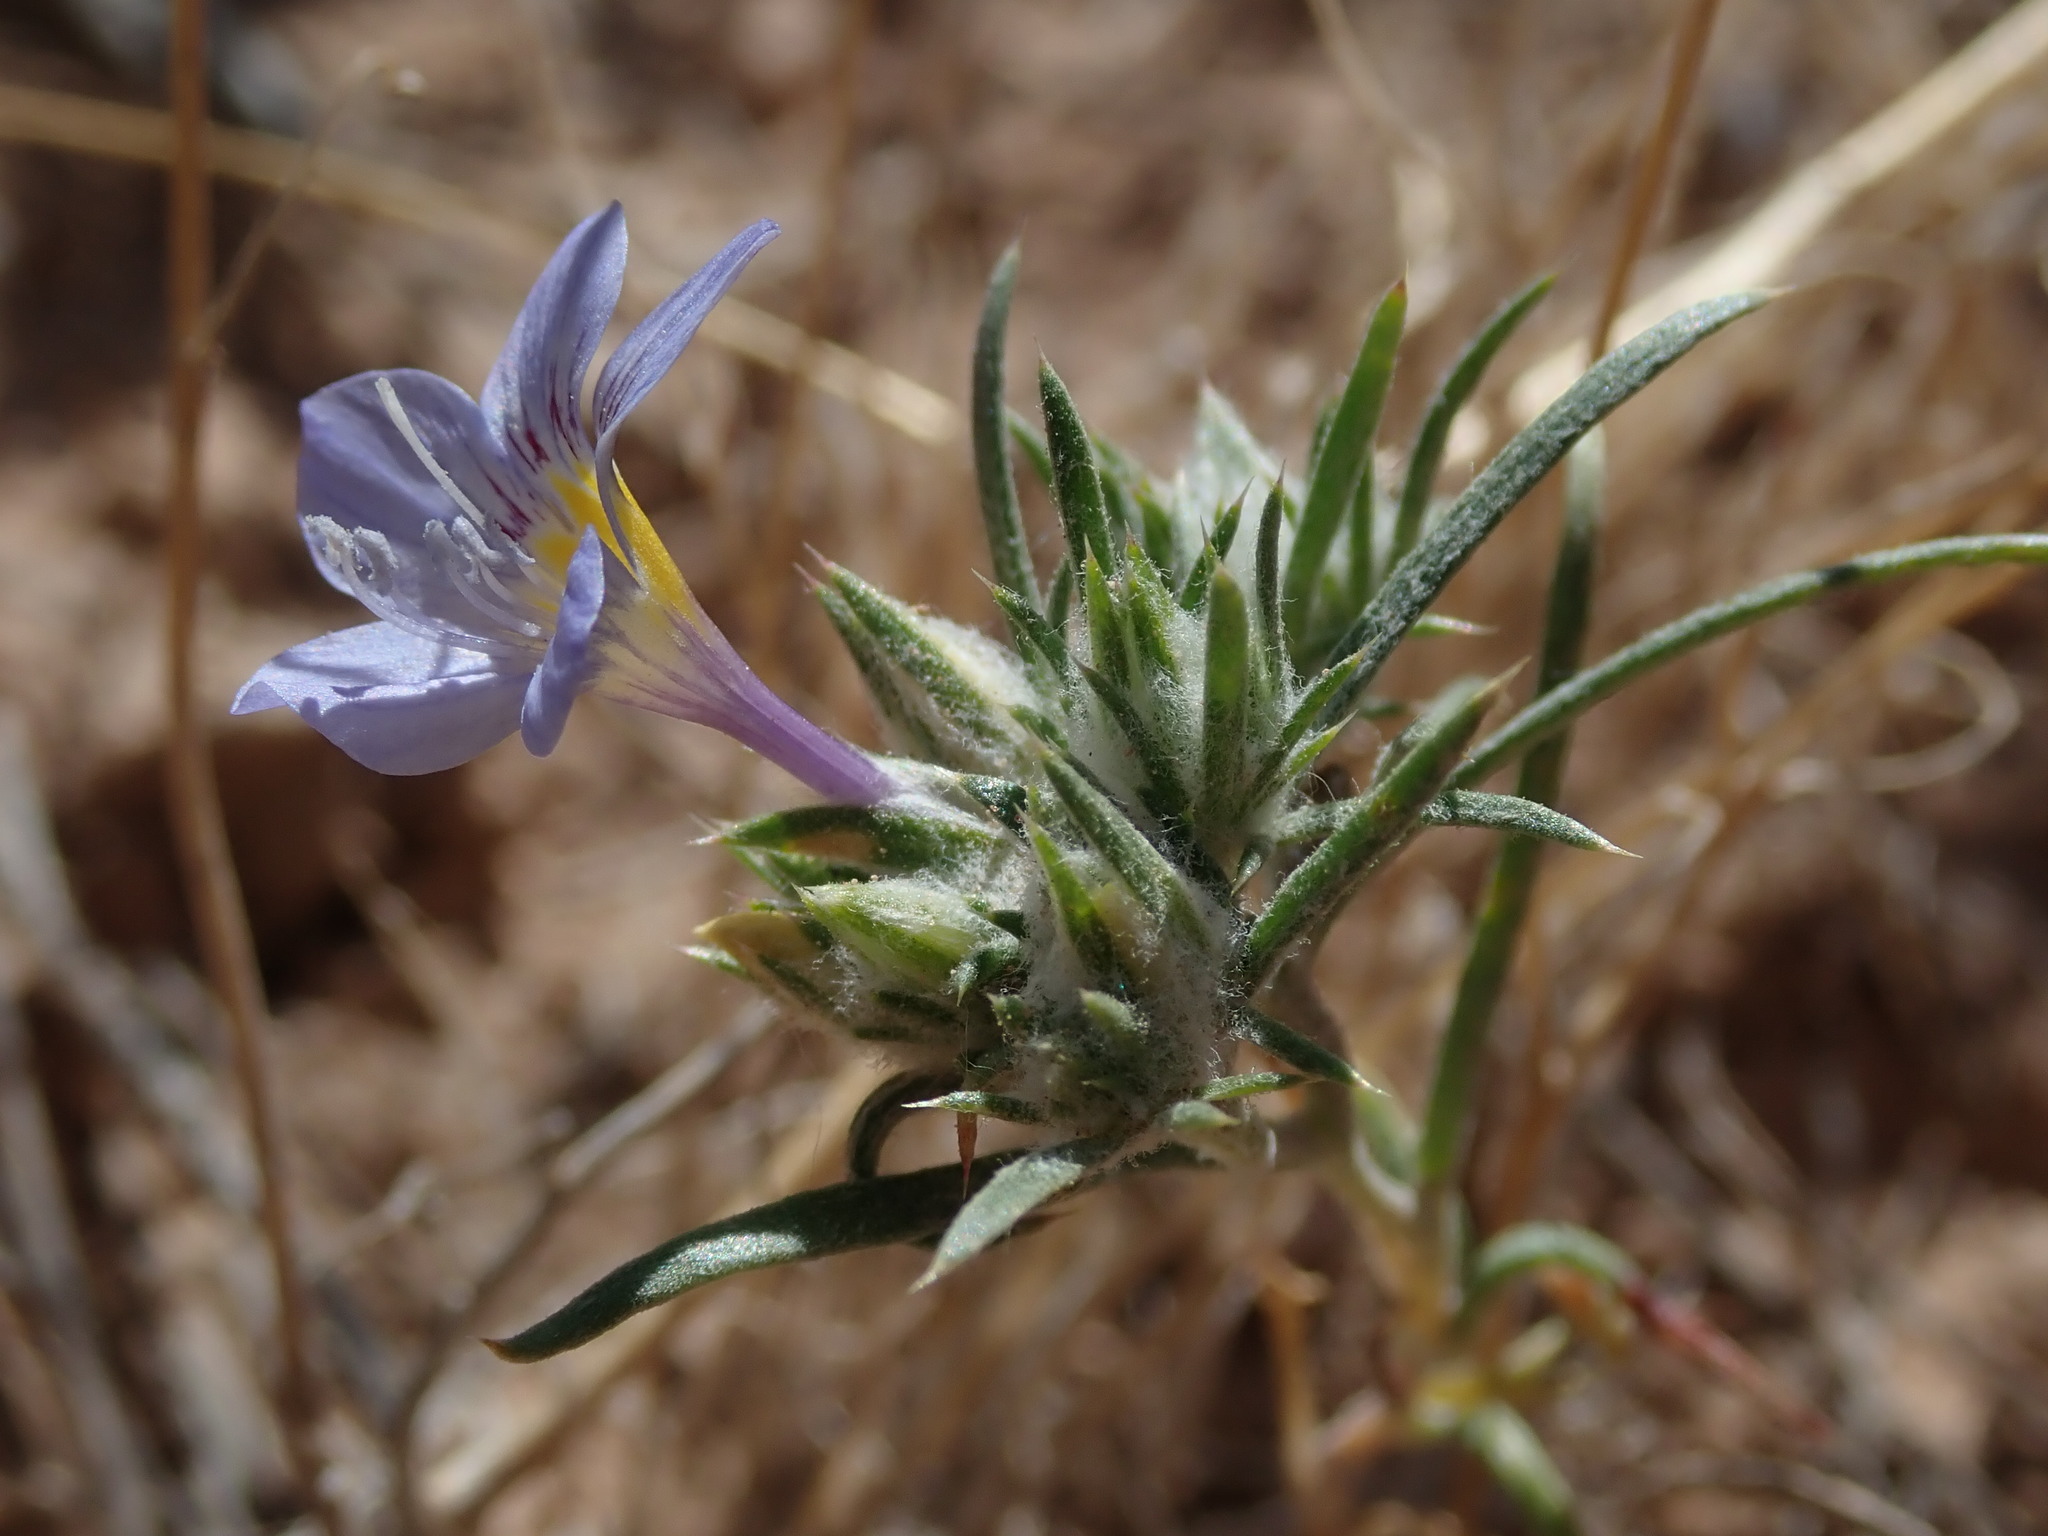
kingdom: Plantae
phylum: Tracheophyta
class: Magnoliopsida
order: Ericales
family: Polemoniaceae
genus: Eriastrum
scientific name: Eriastrum eremicum
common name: Desert eriastrum
